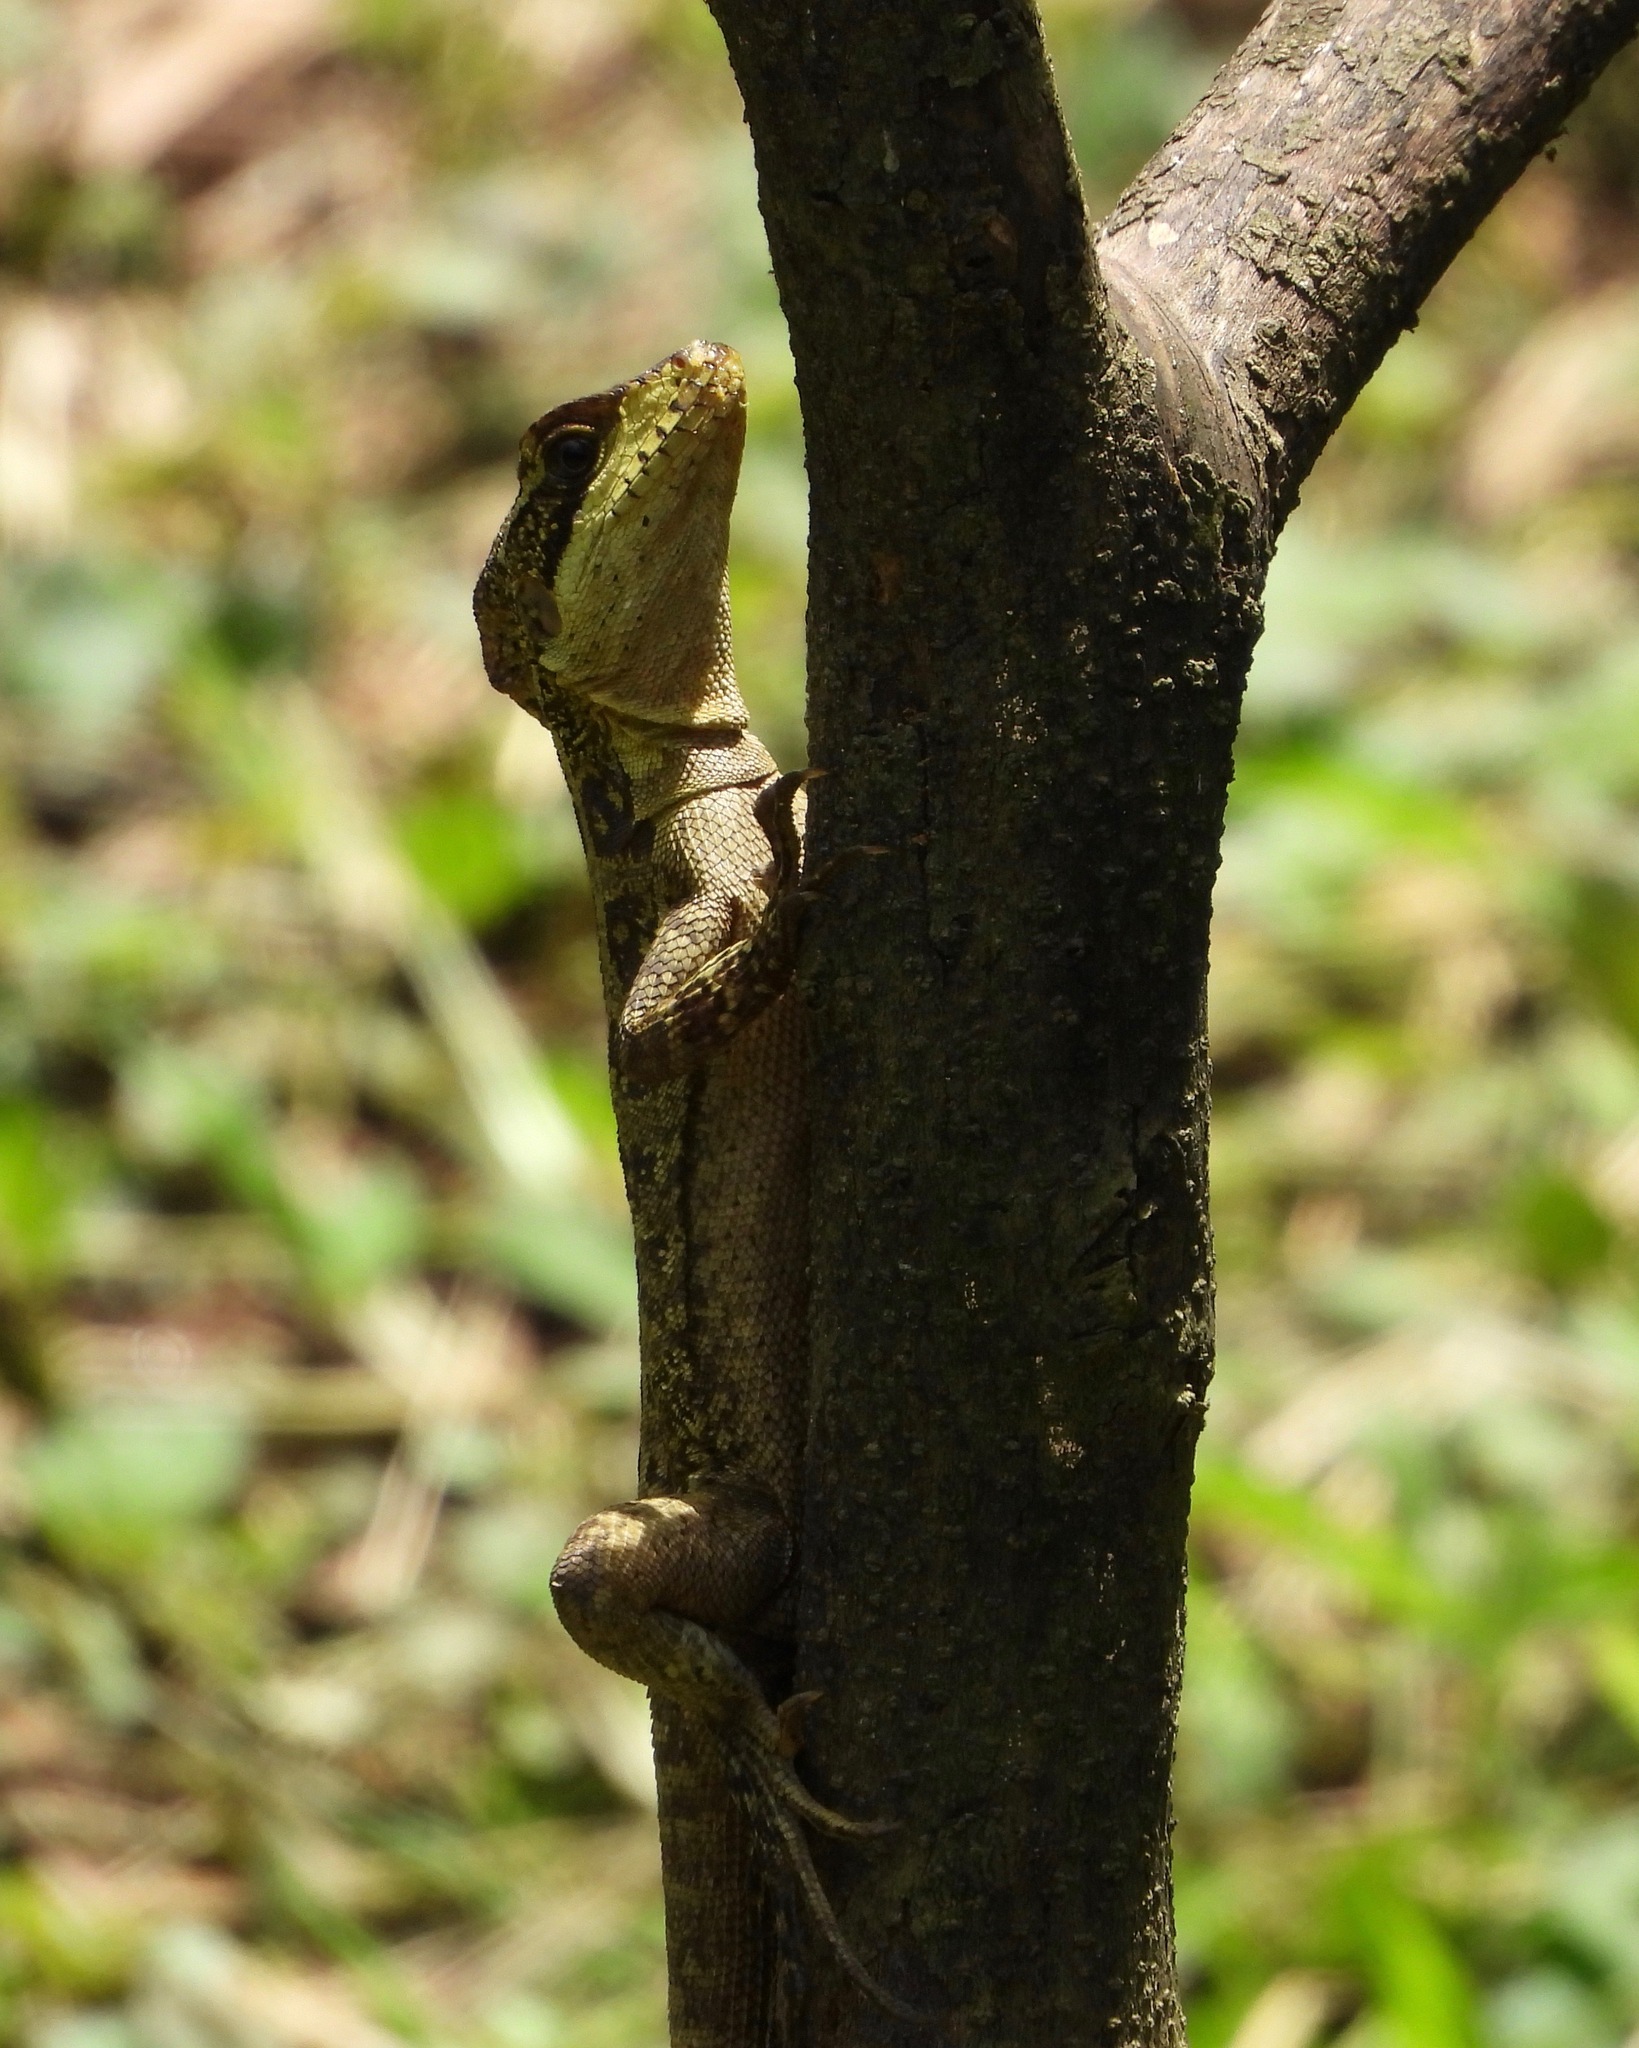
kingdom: Animalia
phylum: Chordata
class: Squamata
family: Corytophanidae
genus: Basiliscus
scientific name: Basiliscus vittatus
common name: Brown basilisk
